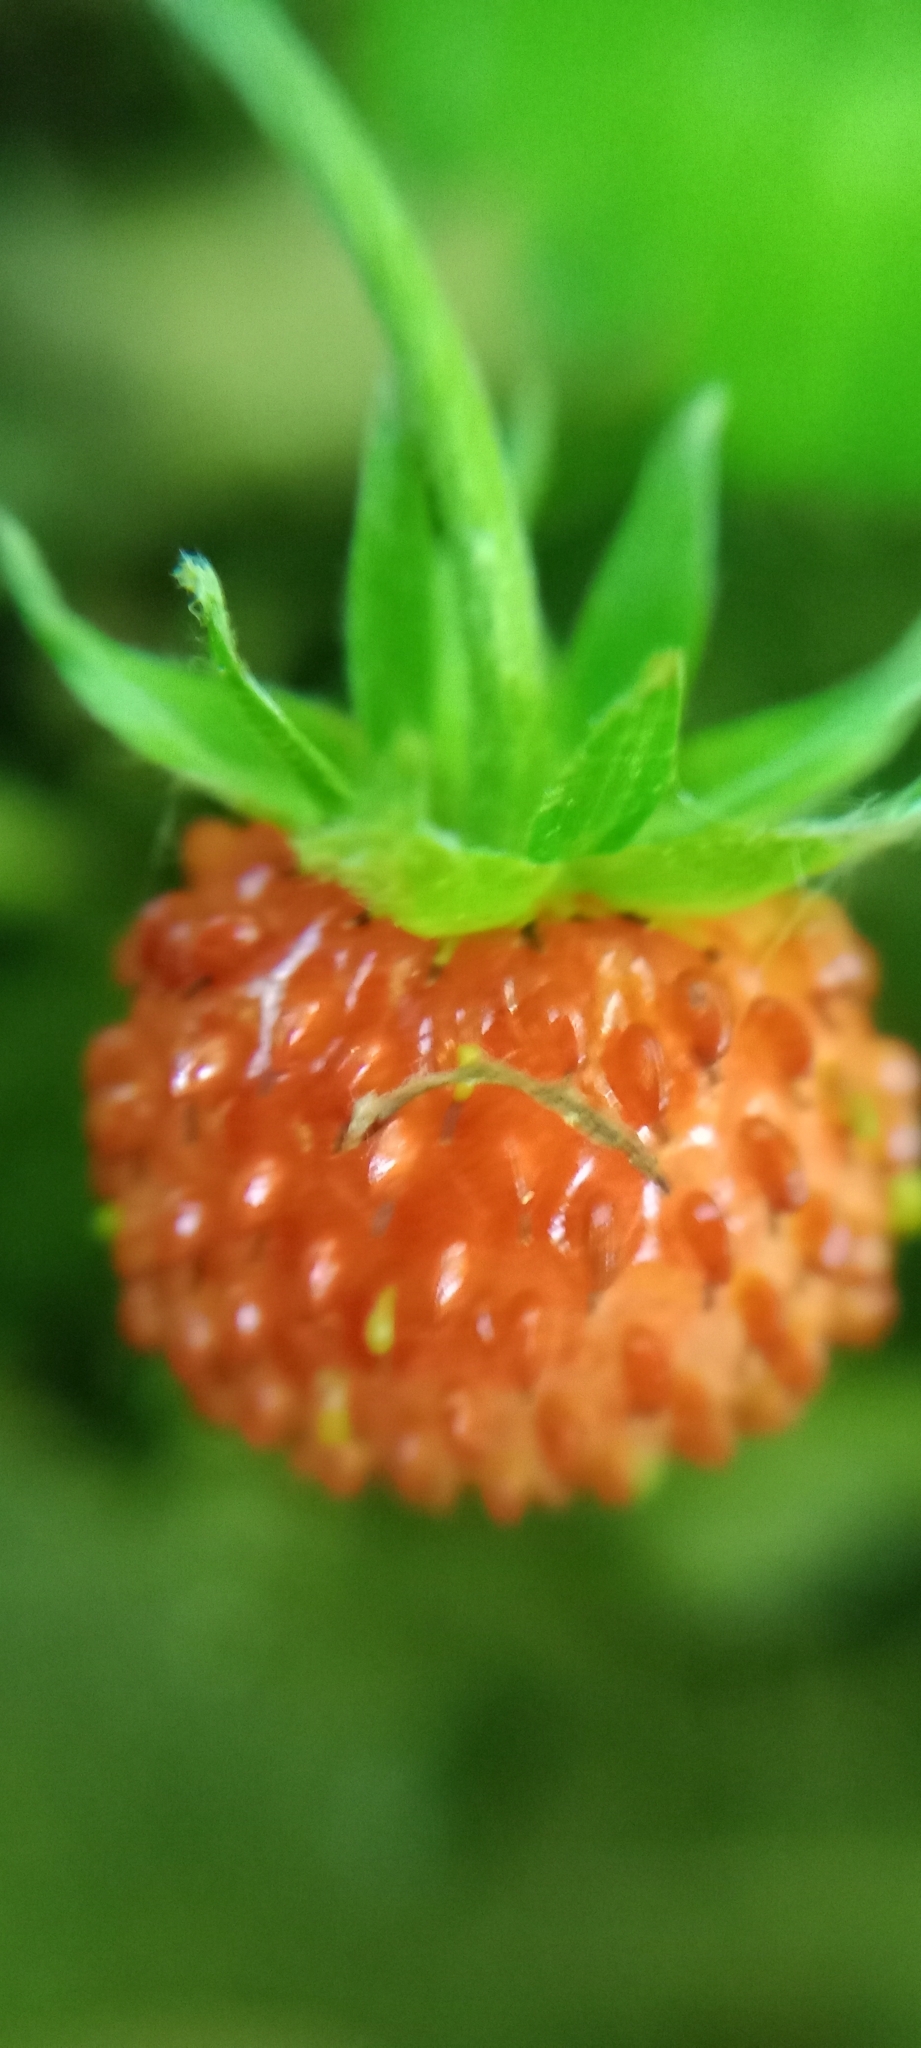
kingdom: Plantae
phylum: Tracheophyta
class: Magnoliopsida
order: Rosales
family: Rosaceae
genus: Fragaria
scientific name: Fragaria vesca
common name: Wild strawberry
